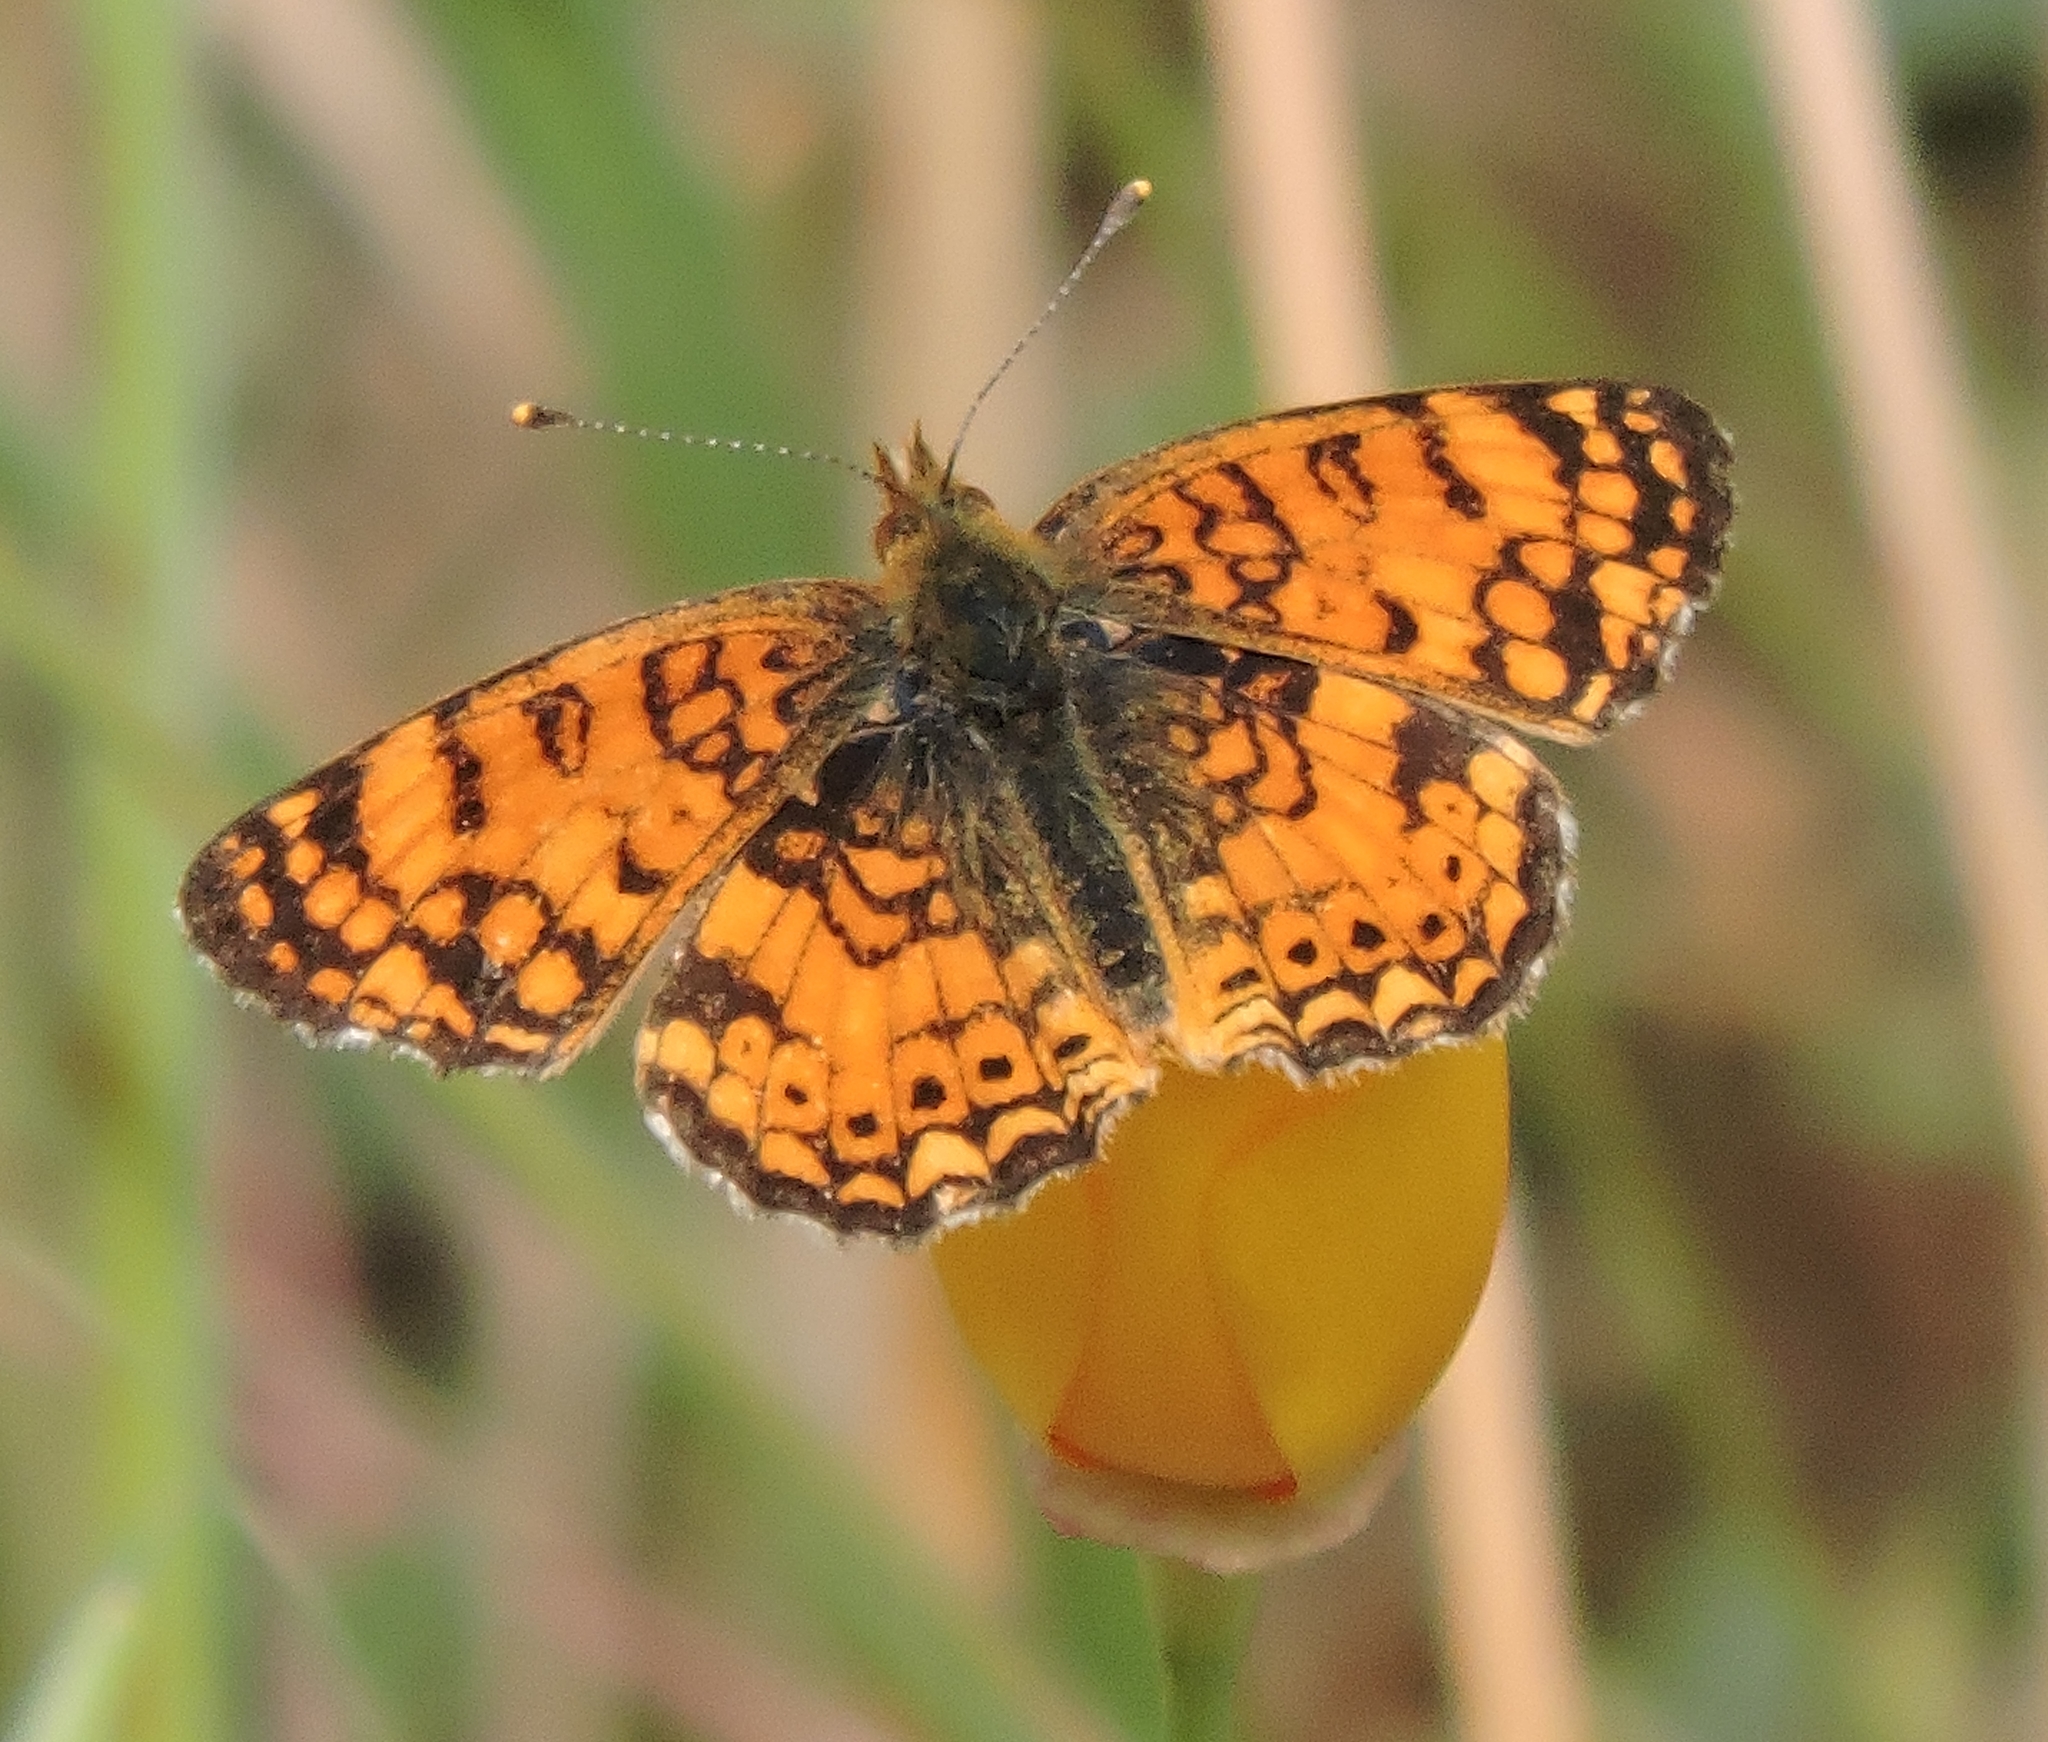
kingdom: Animalia
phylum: Arthropoda
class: Insecta
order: Lepidoptera
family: Nymphalidae
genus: Eresia
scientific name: Eresia aveyrona
